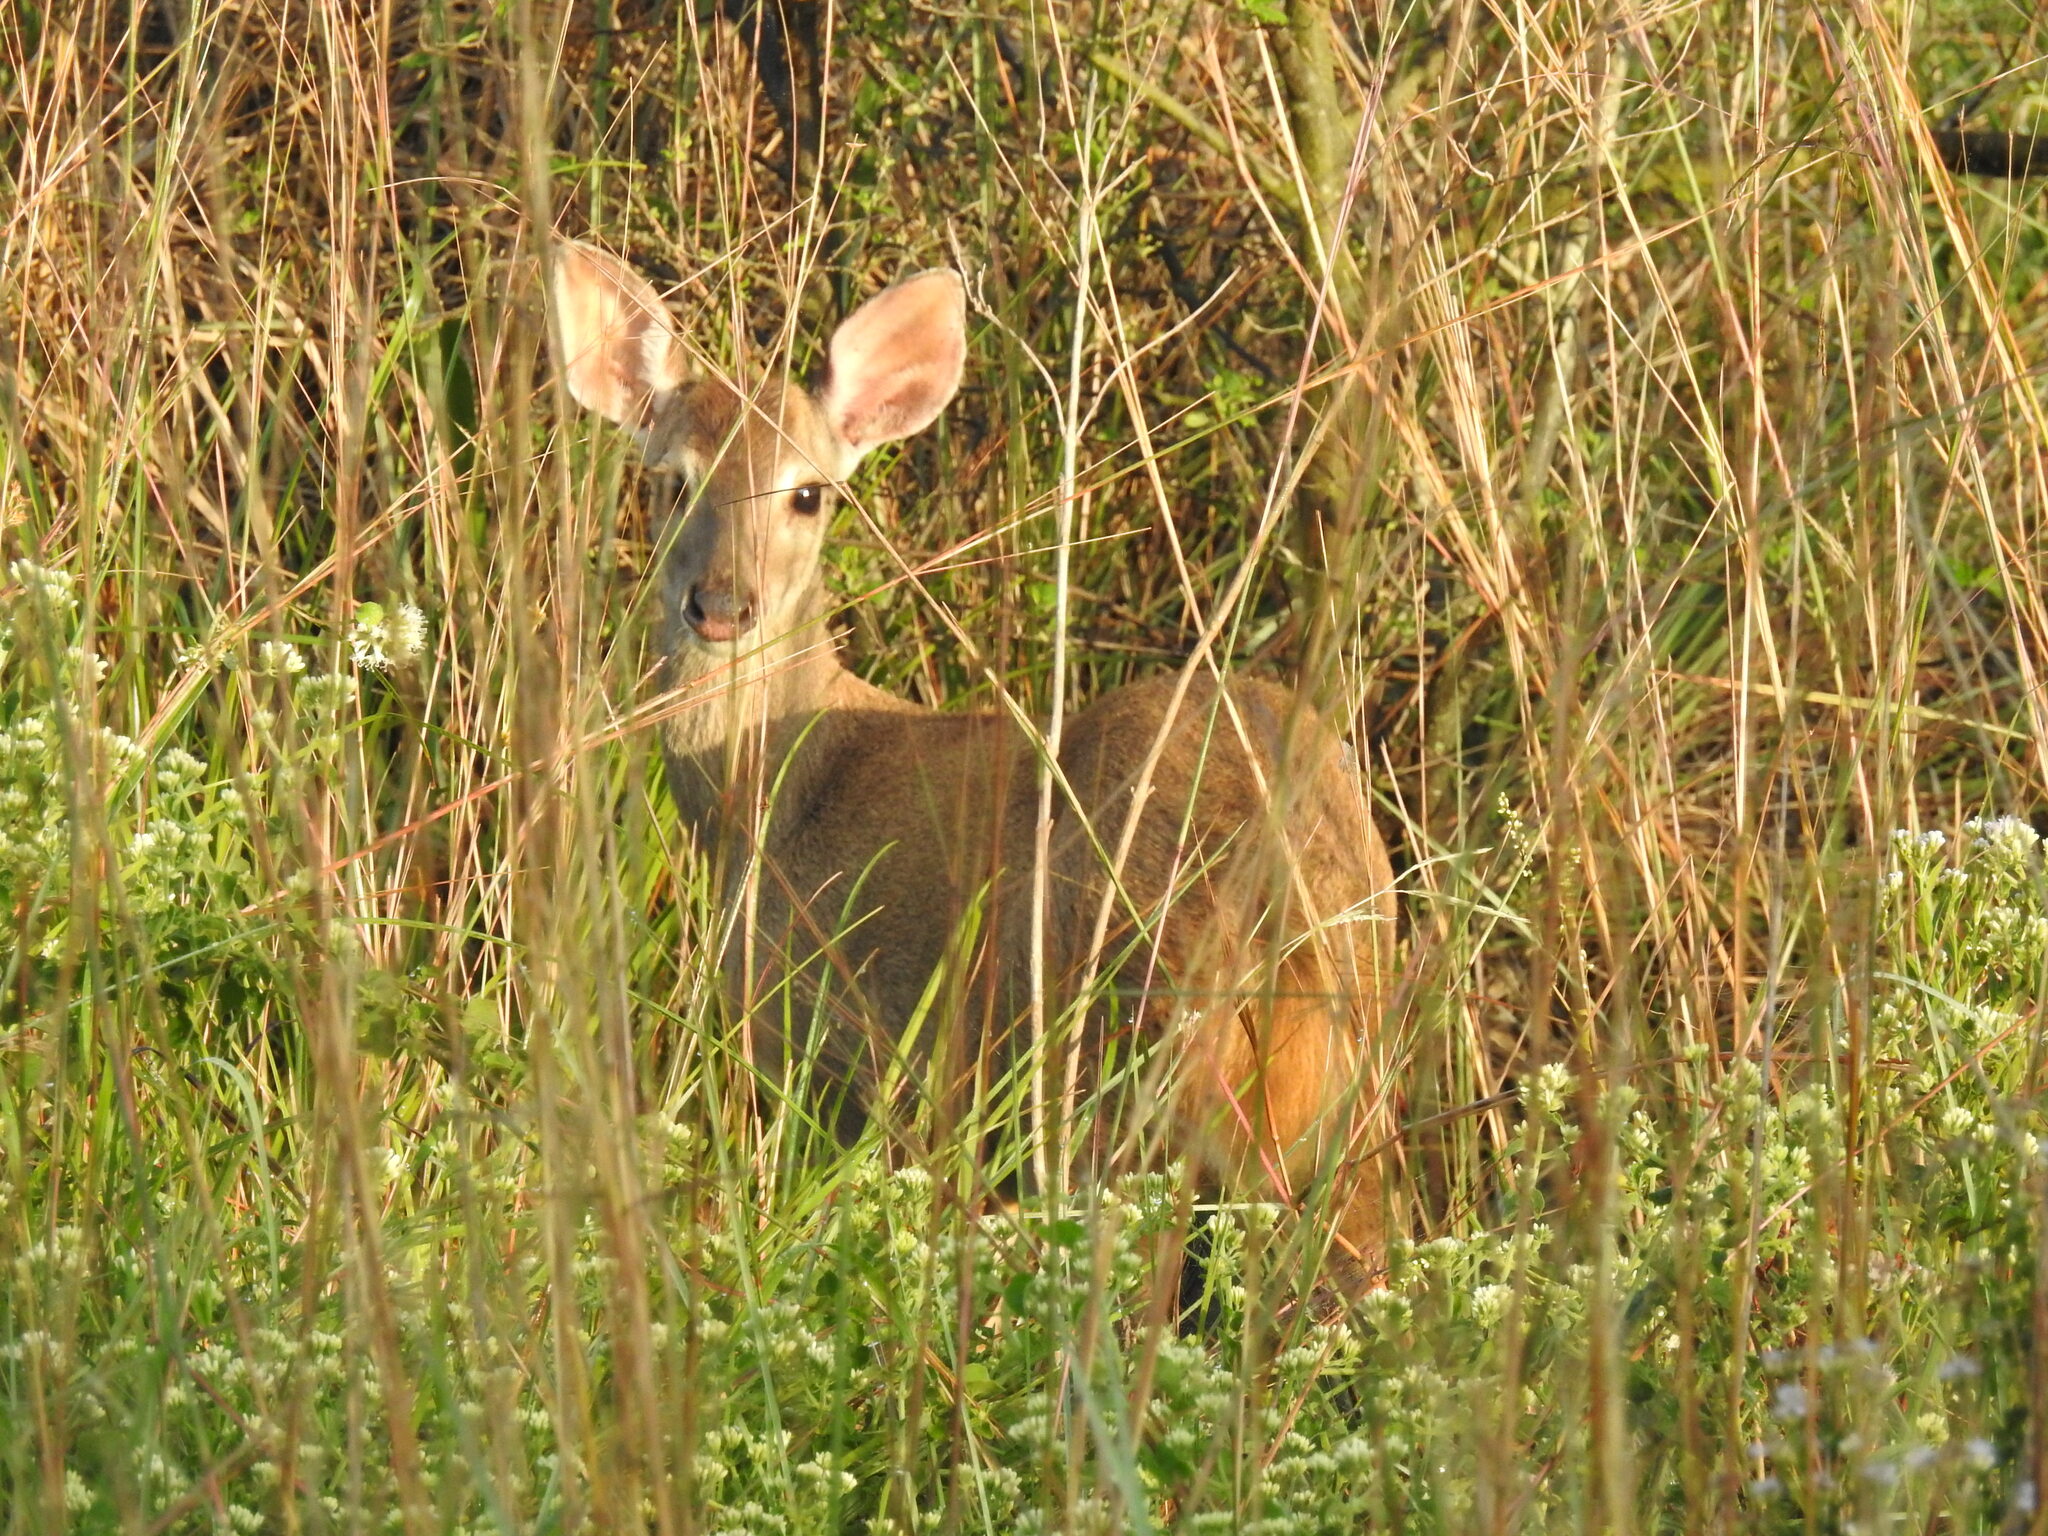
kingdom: Animalia
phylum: Chordata
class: Mammalia
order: Artiodactyla
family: Cervidae
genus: Mazama
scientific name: Mazama gouazoubira
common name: Gray brocket
